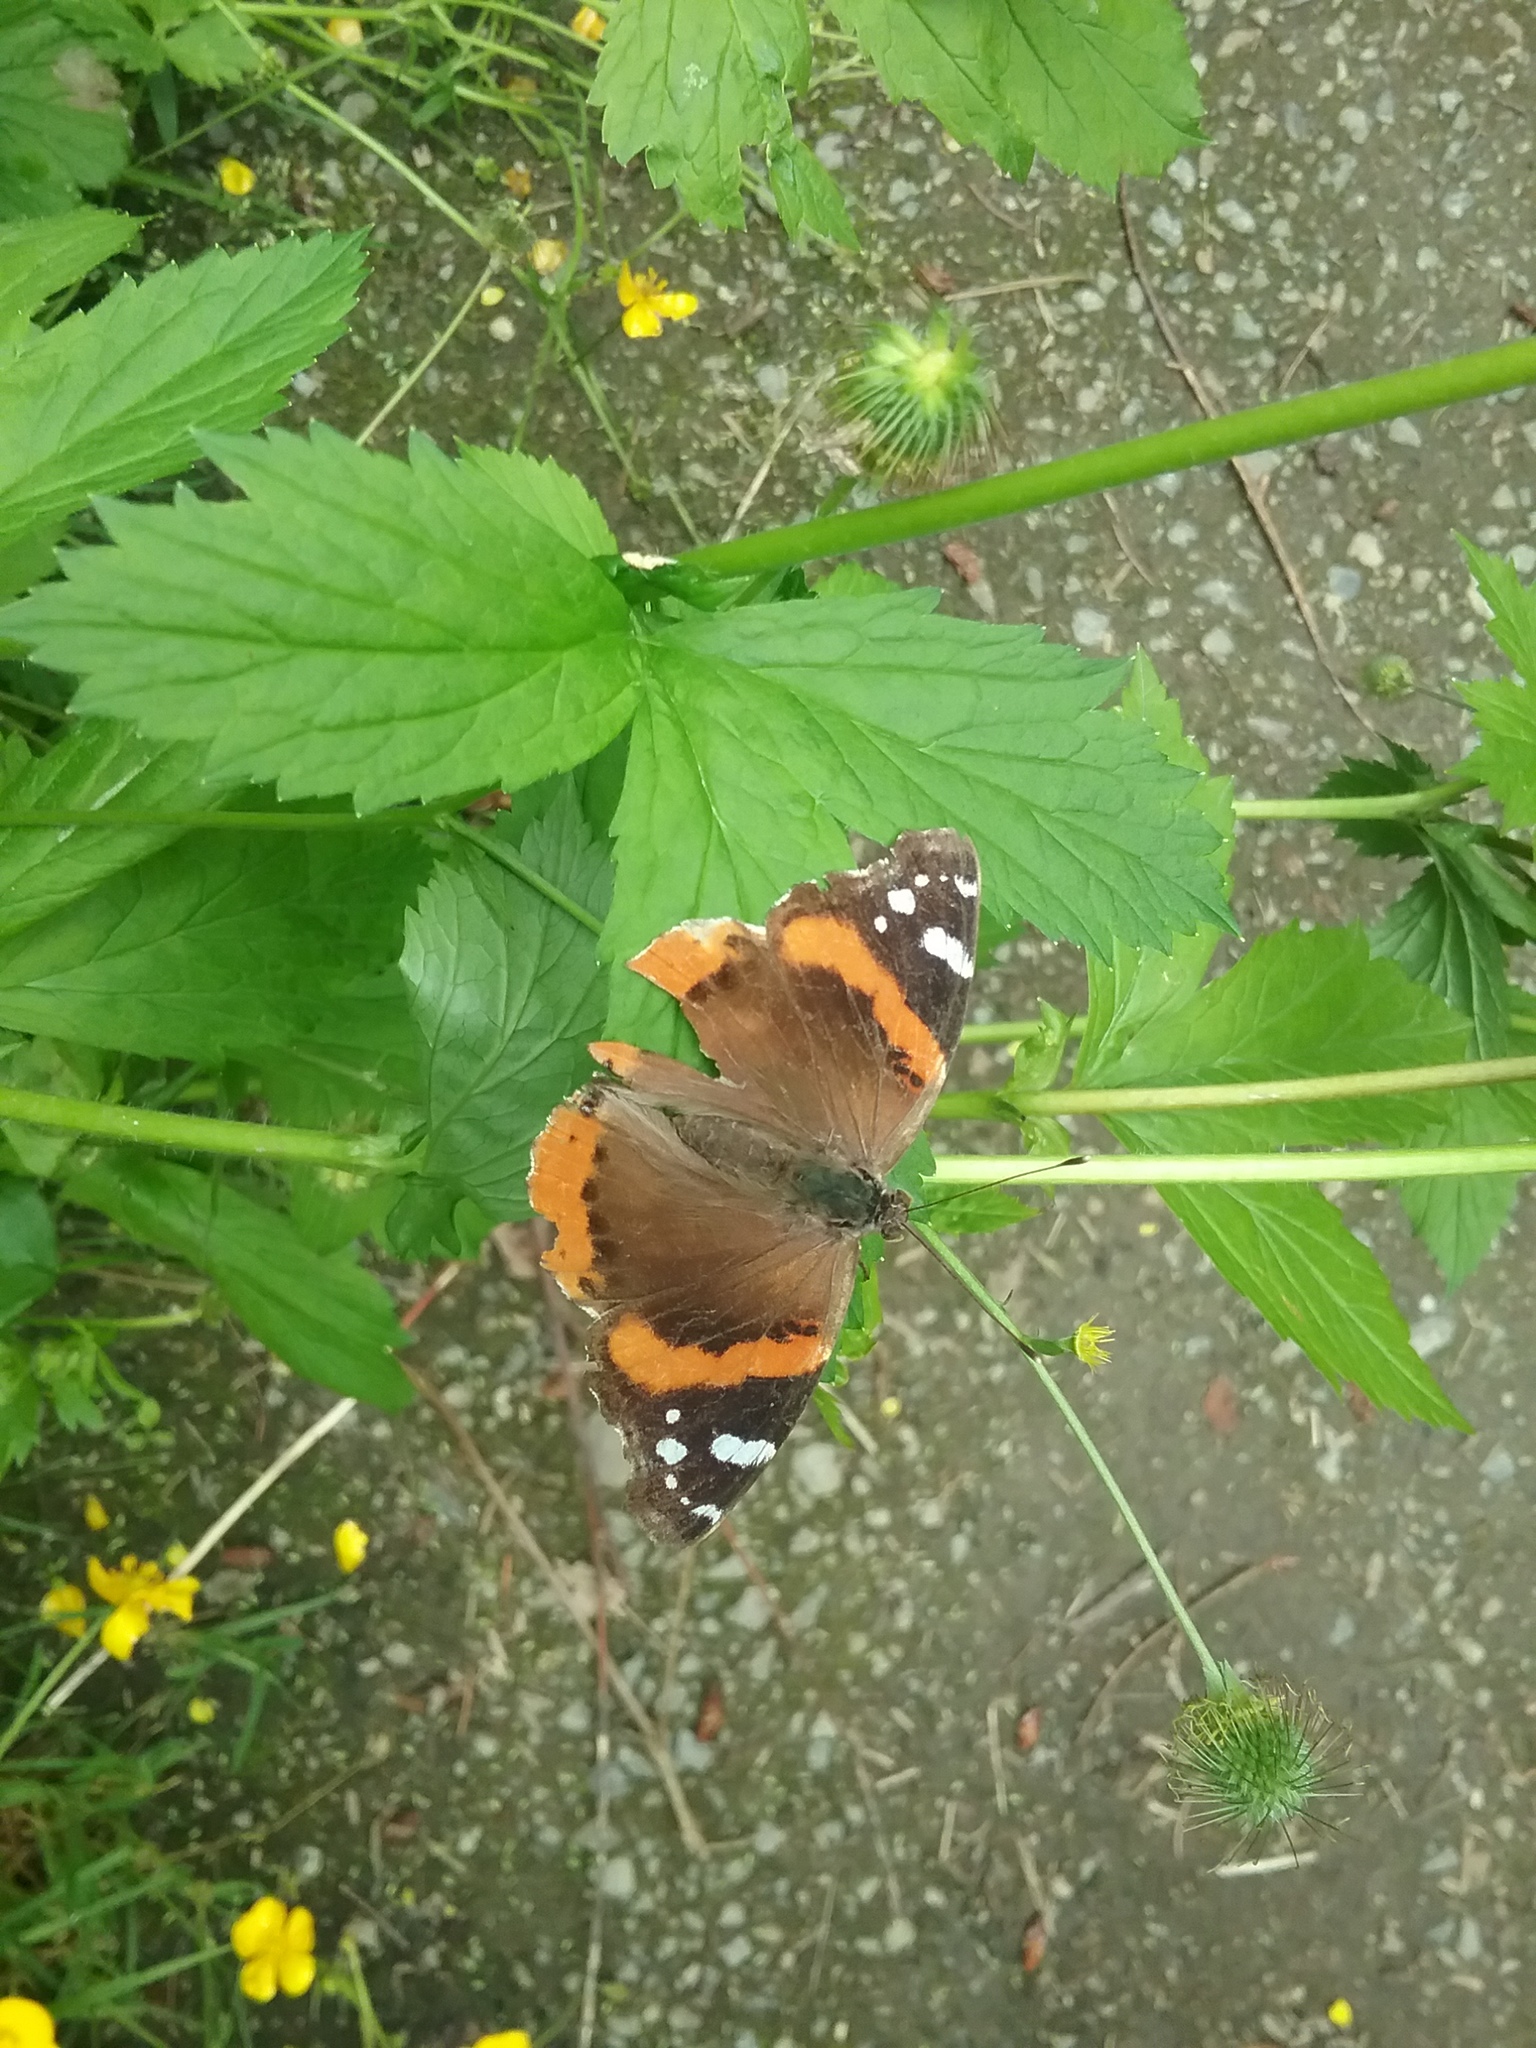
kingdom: Animalia
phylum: Arthropoda
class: Insecta
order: Lepidoptera
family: Nymphalidae
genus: Vanessa
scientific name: Vanessa atalanta
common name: Red admiral
